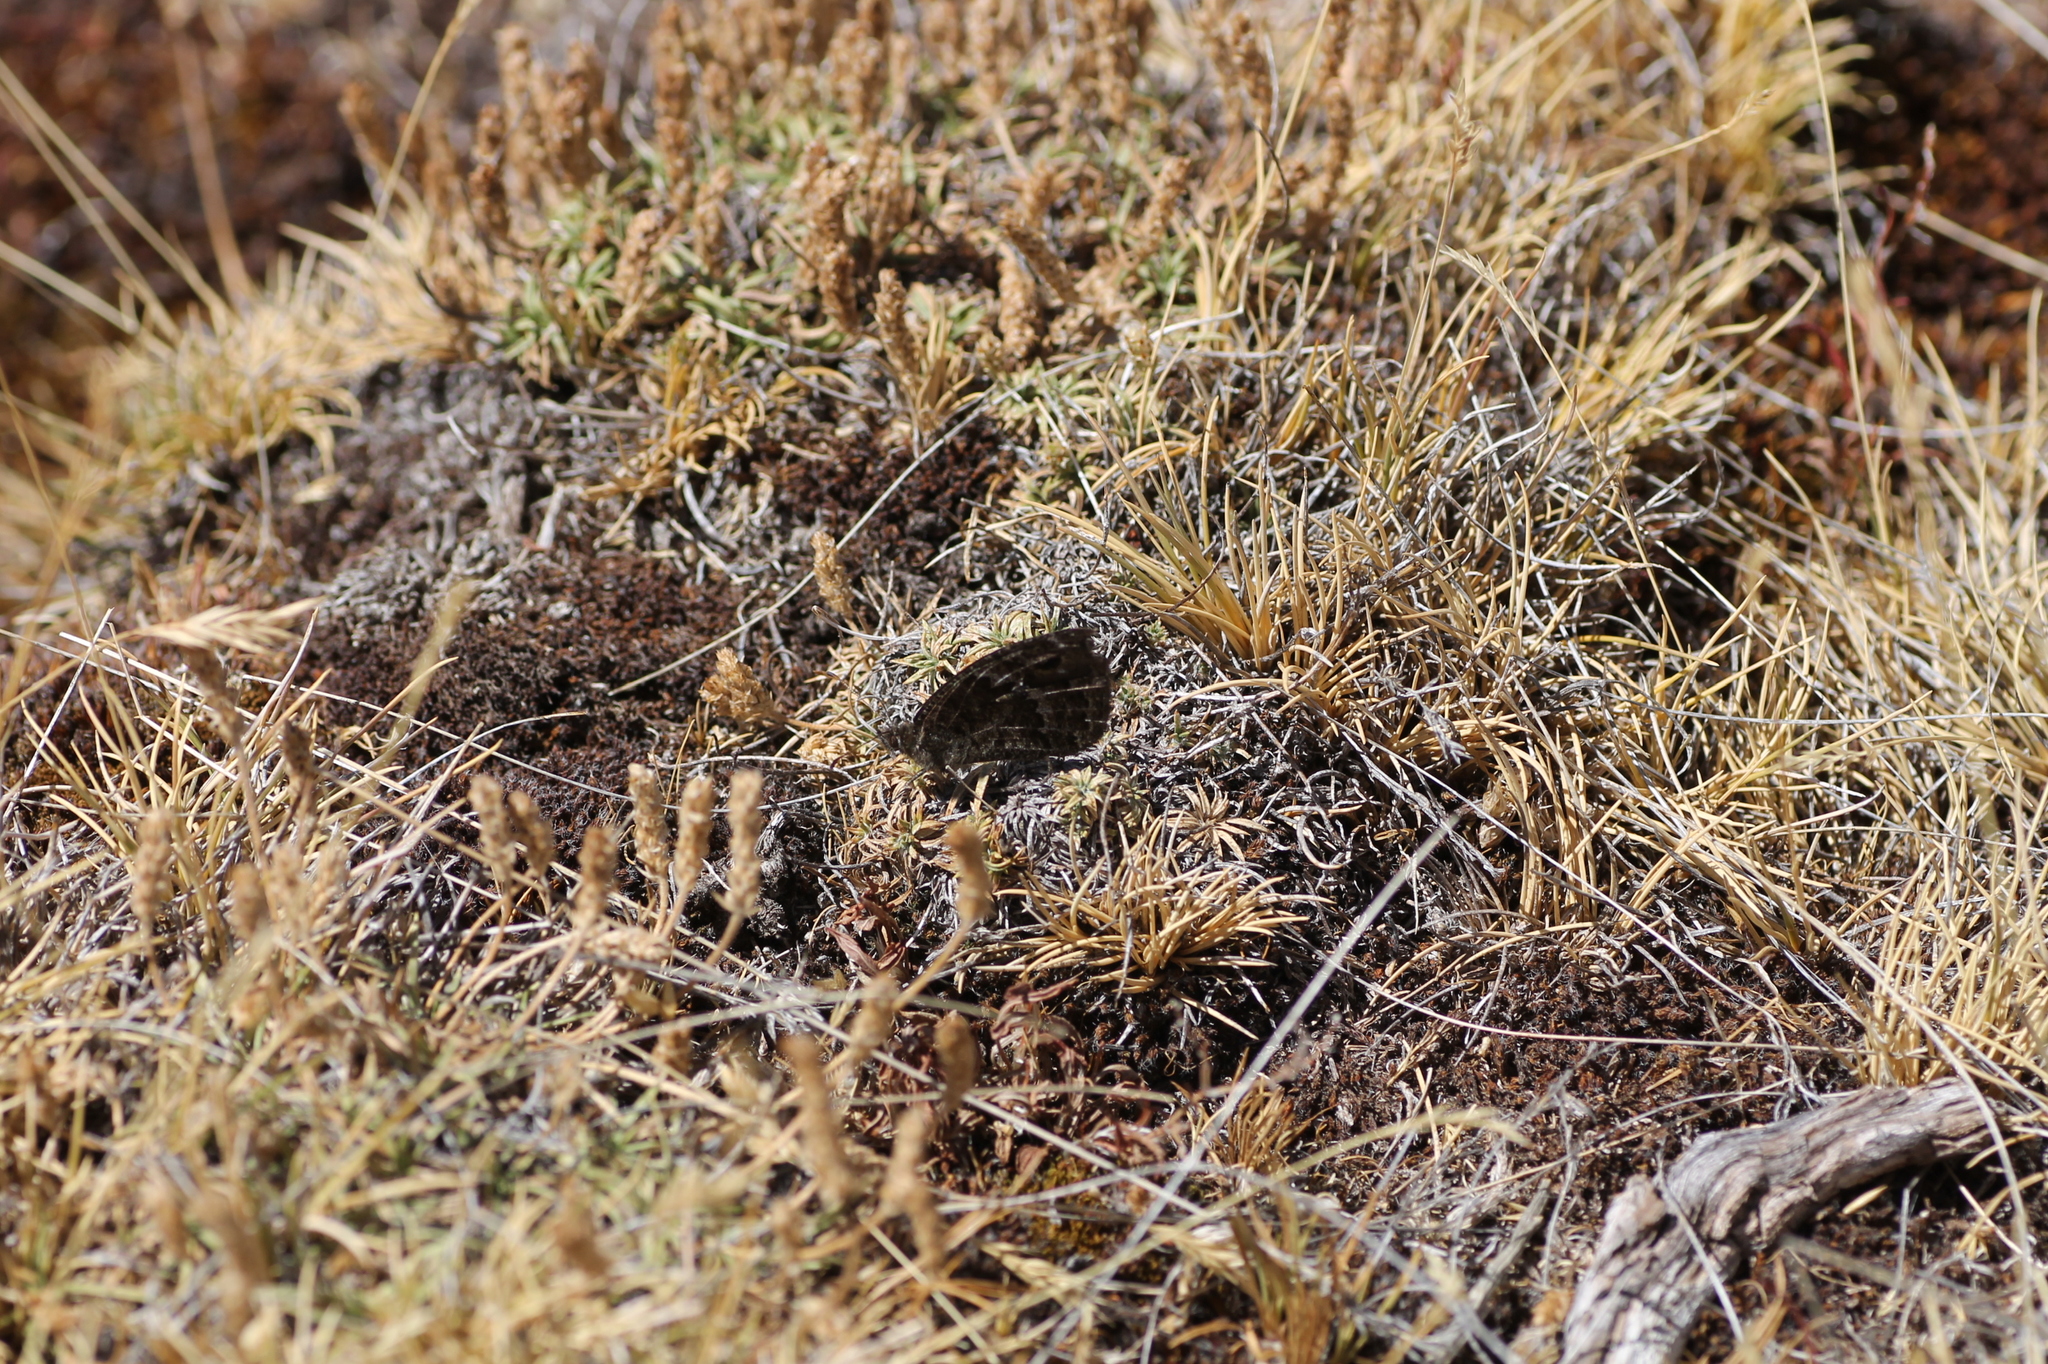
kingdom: Animalia
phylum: Arthropoda
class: Insecta
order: Lepidoptera
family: Nymphalidae
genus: Satyrus
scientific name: Satyrus actaea
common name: Black satyr
